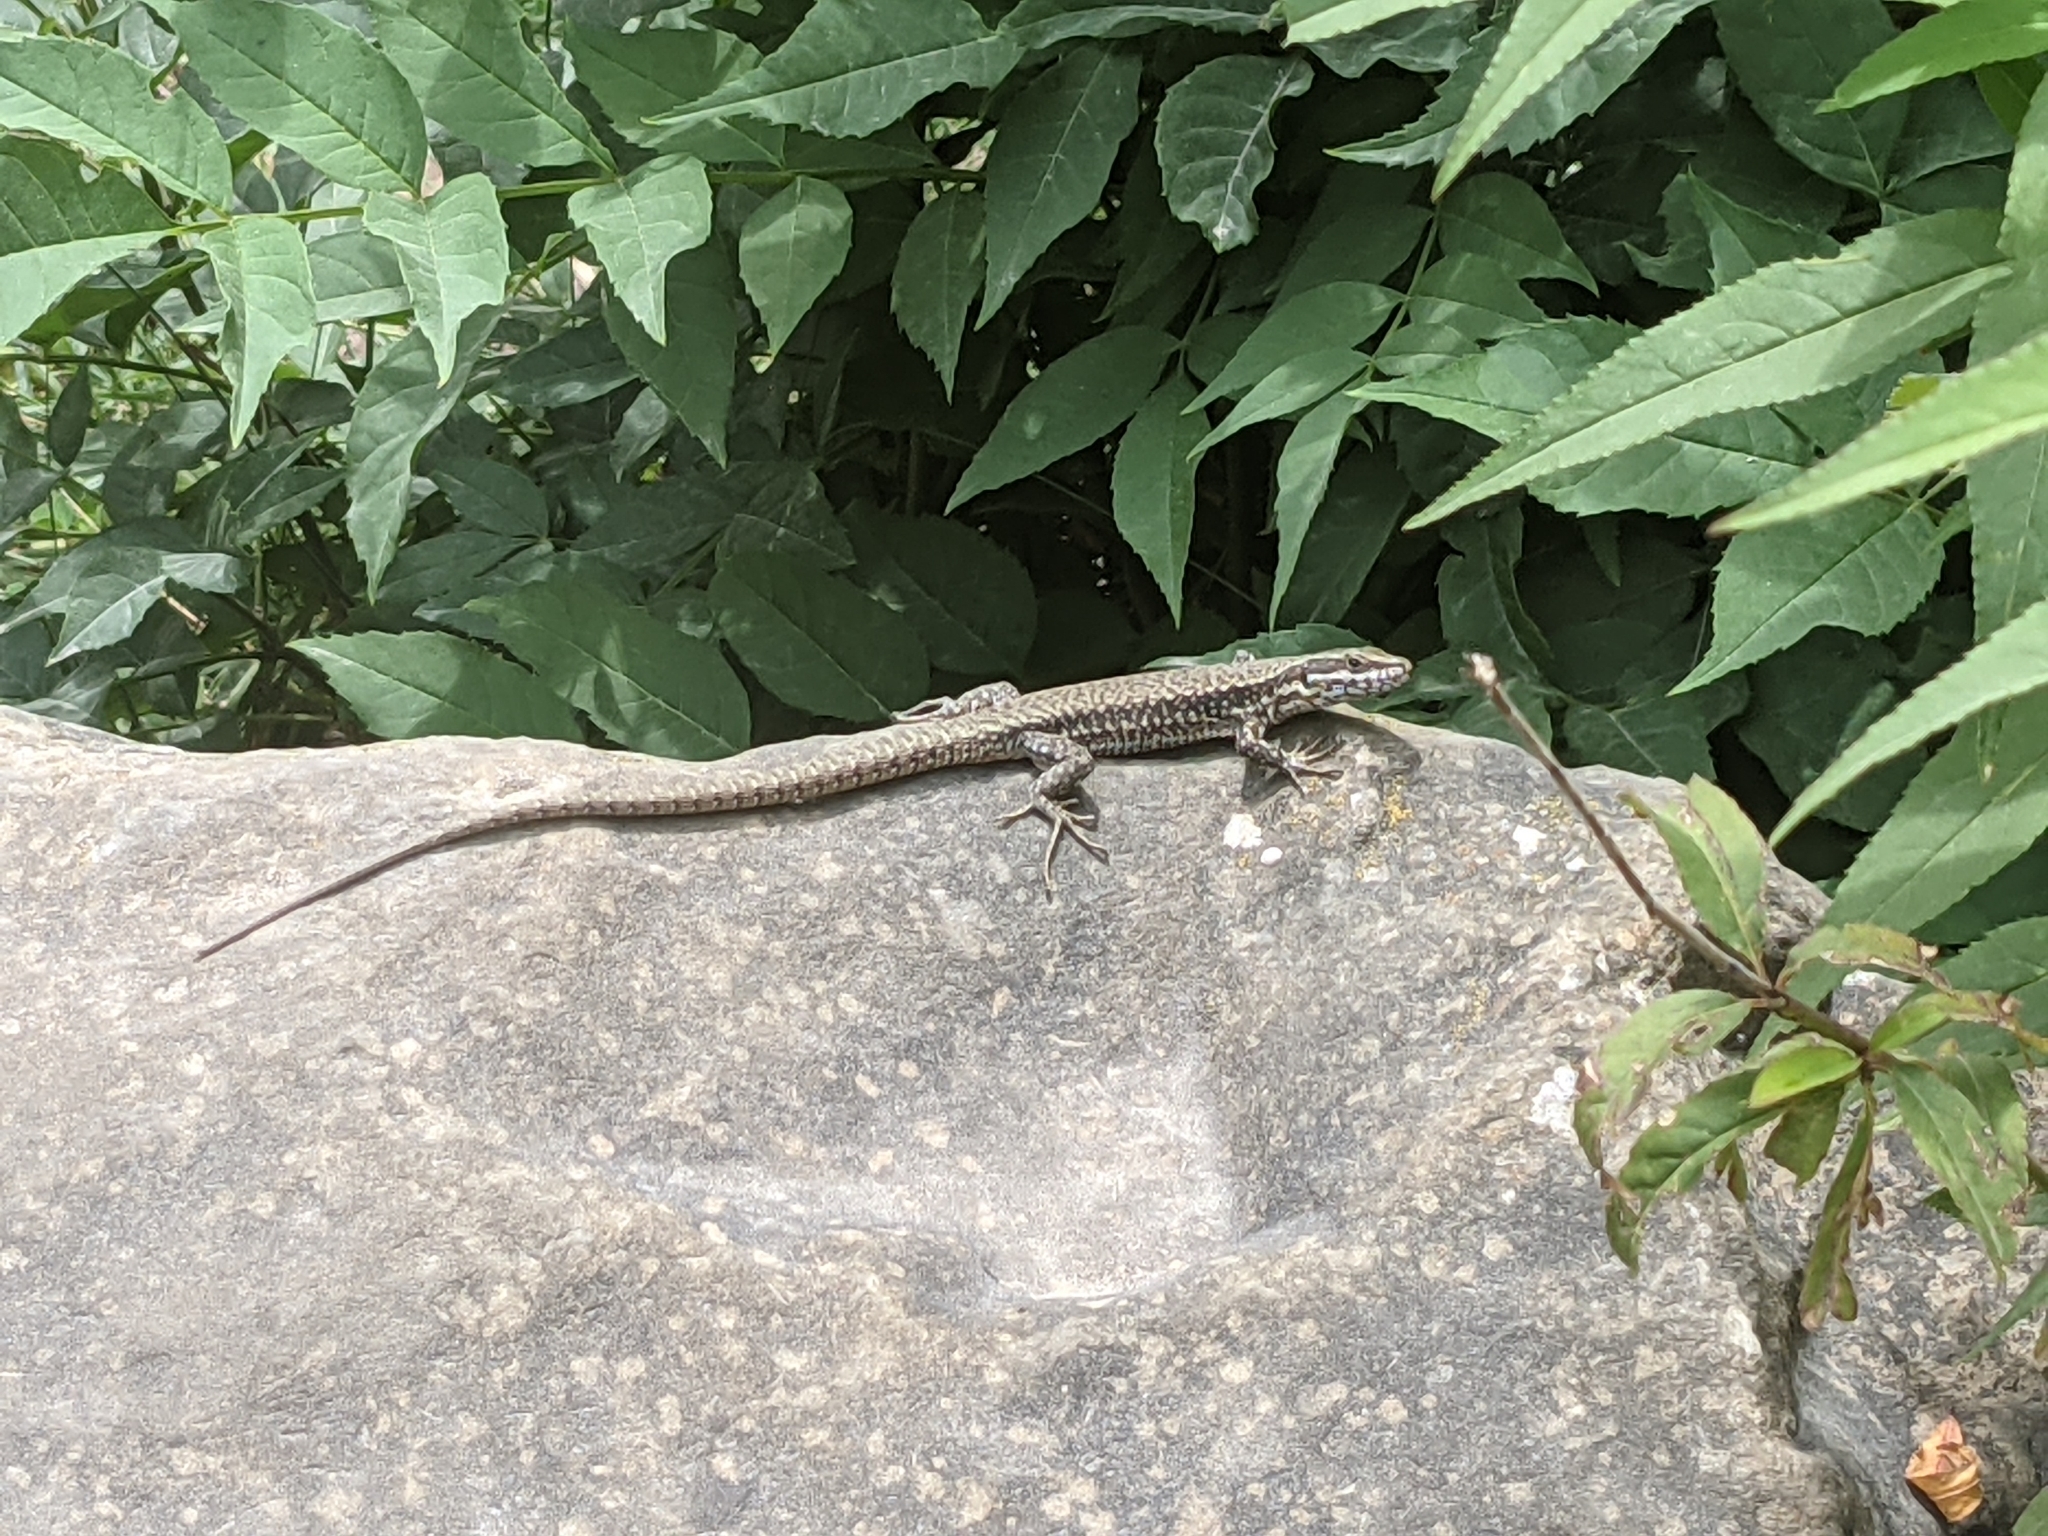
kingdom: Animalia
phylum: Chordata
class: Squamata
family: Lacertidae
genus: Podarcis
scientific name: Podarcis muralis
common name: Common wall lizard
